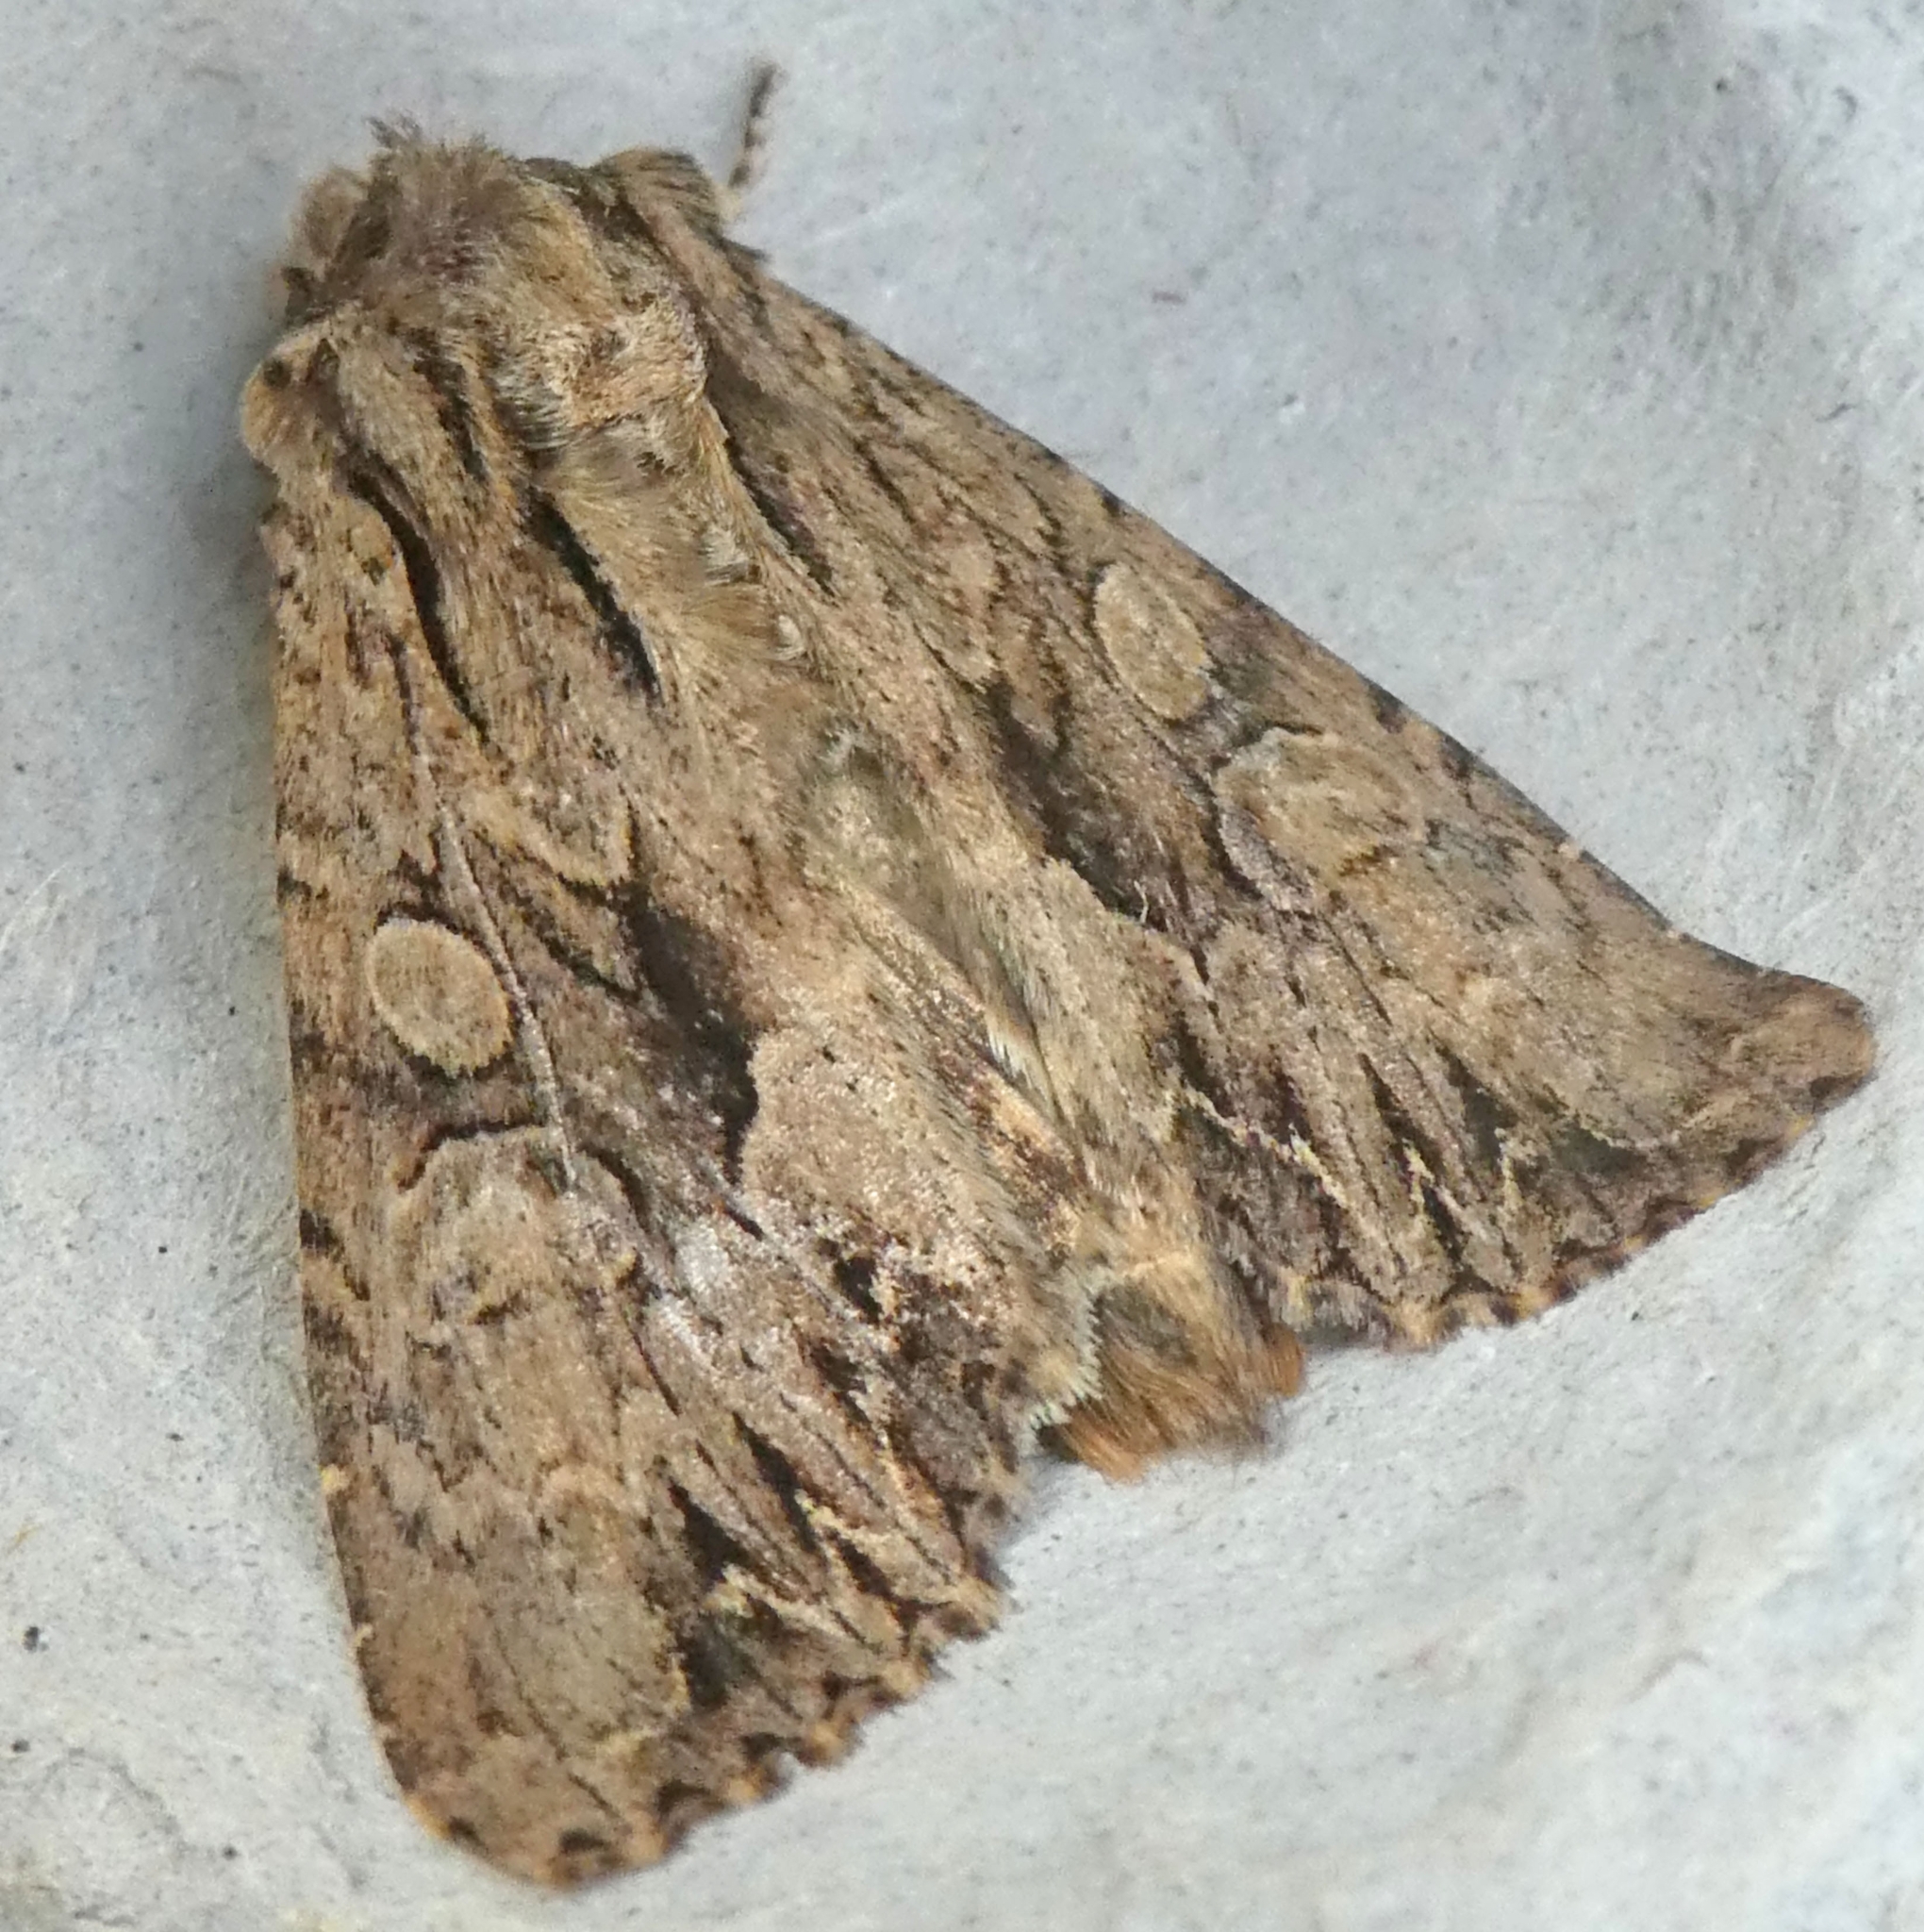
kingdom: Animalia
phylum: Arthropoda
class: Insecta
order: Lepidoptera
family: Noctuidae
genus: Apamea
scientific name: Apamea monoglypha
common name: Dark arches
